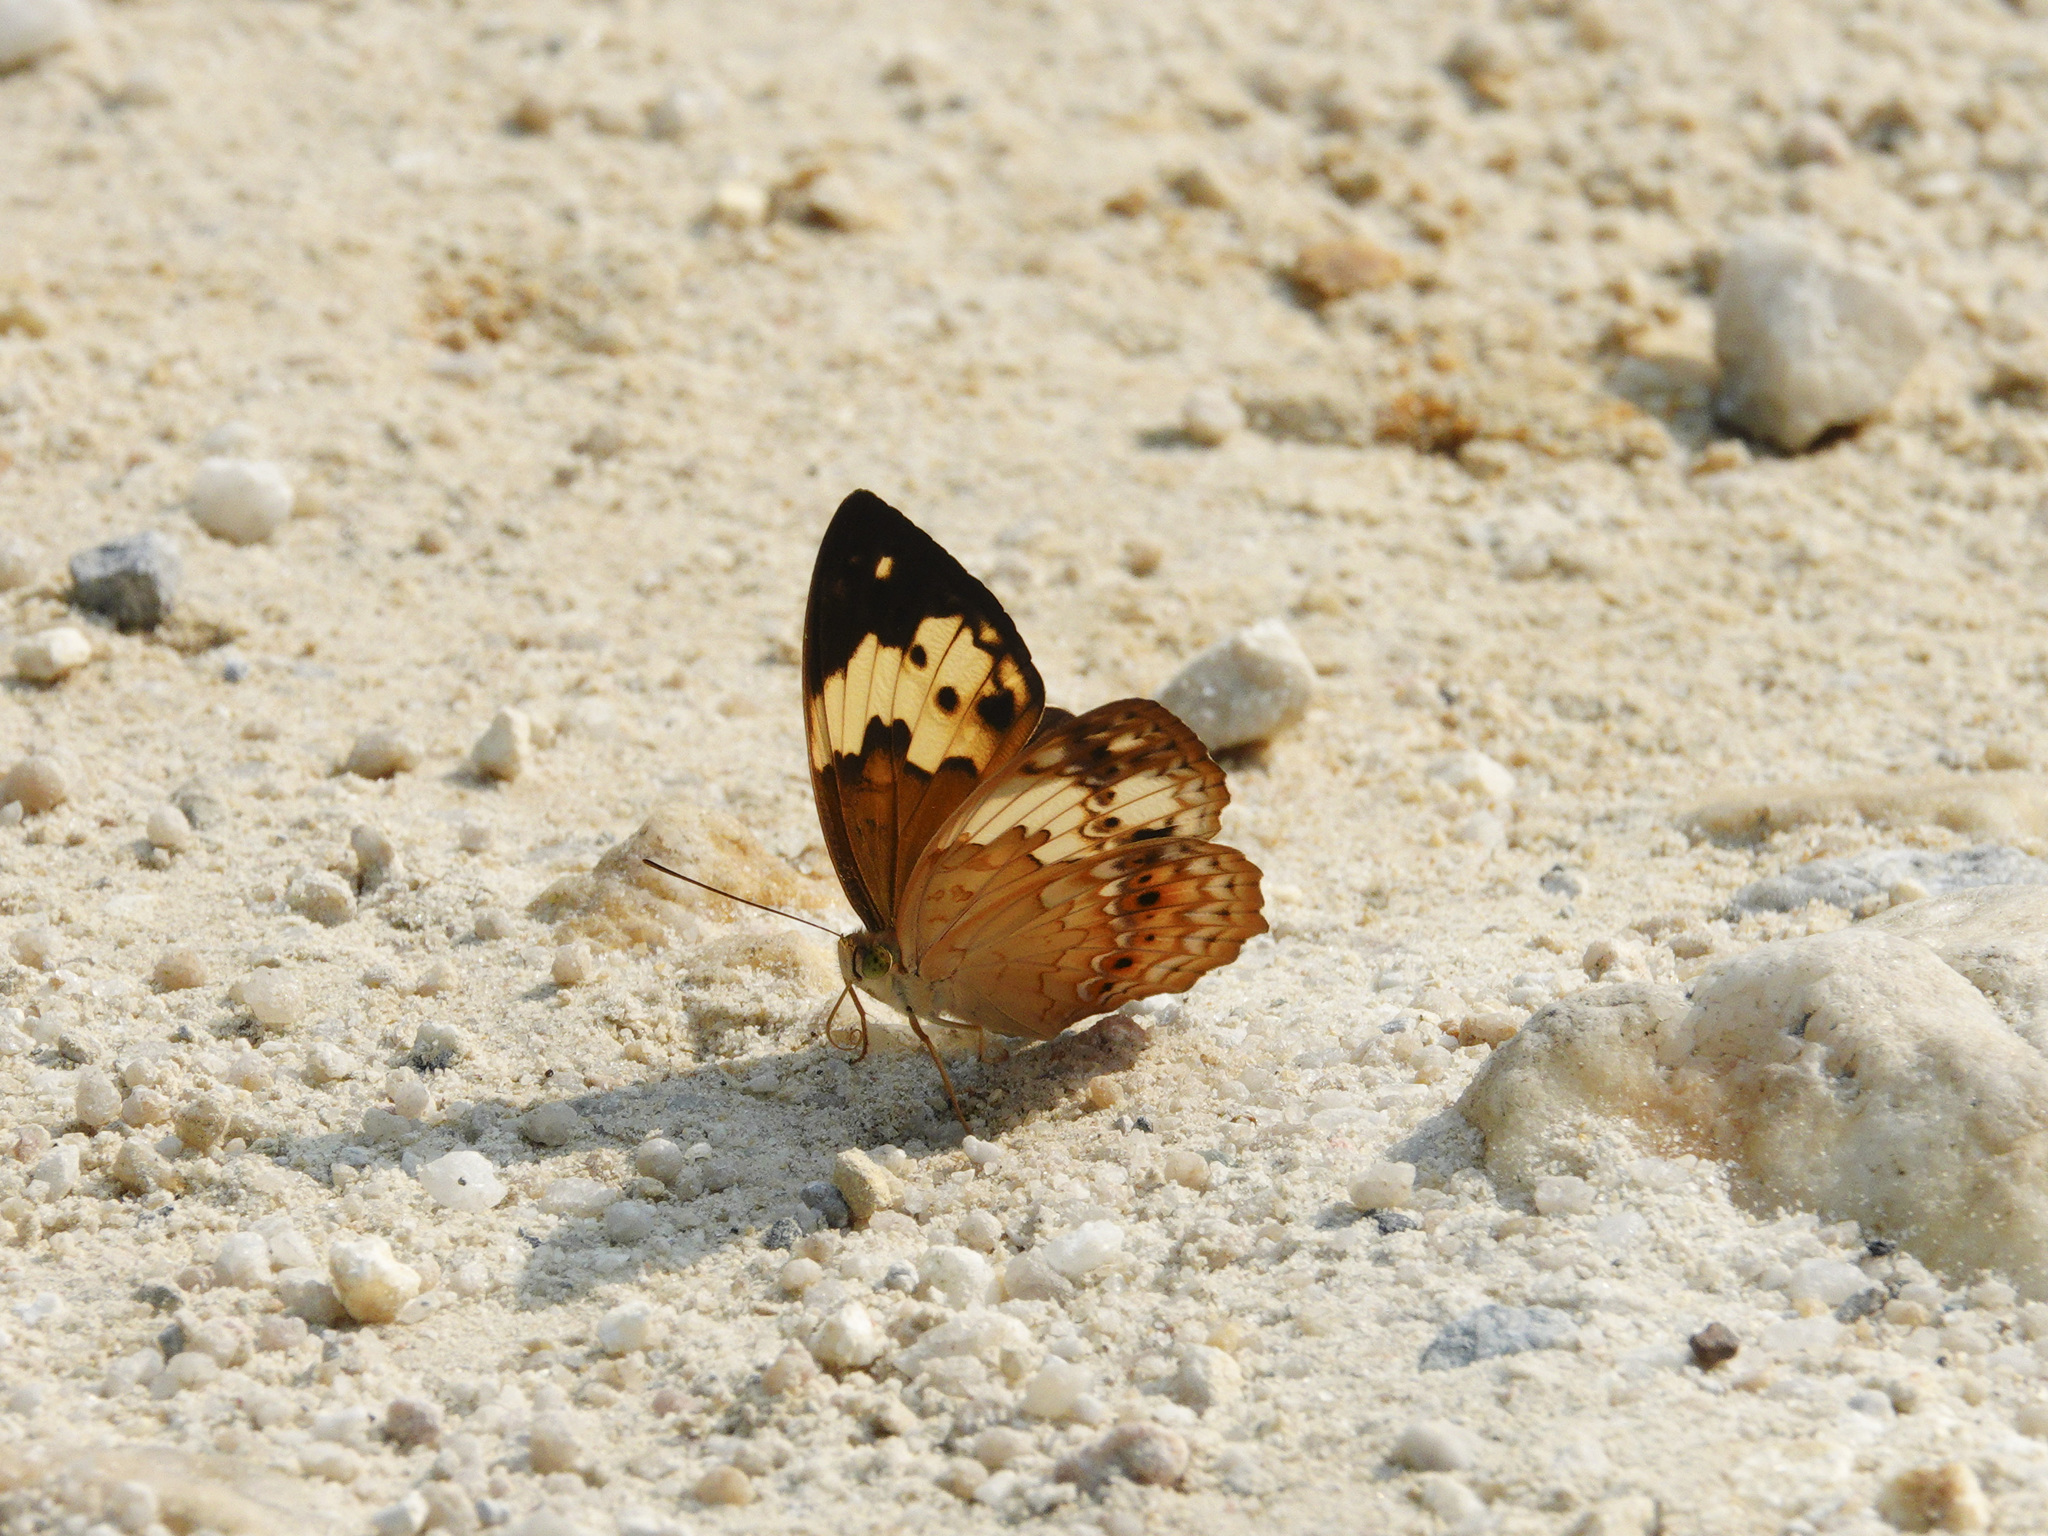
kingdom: Animalia
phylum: Arthropoda
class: Insecta
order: Lepidoptera
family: Nymphalidae
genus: Cupha
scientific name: Cupha erymanthis
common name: Rustic
